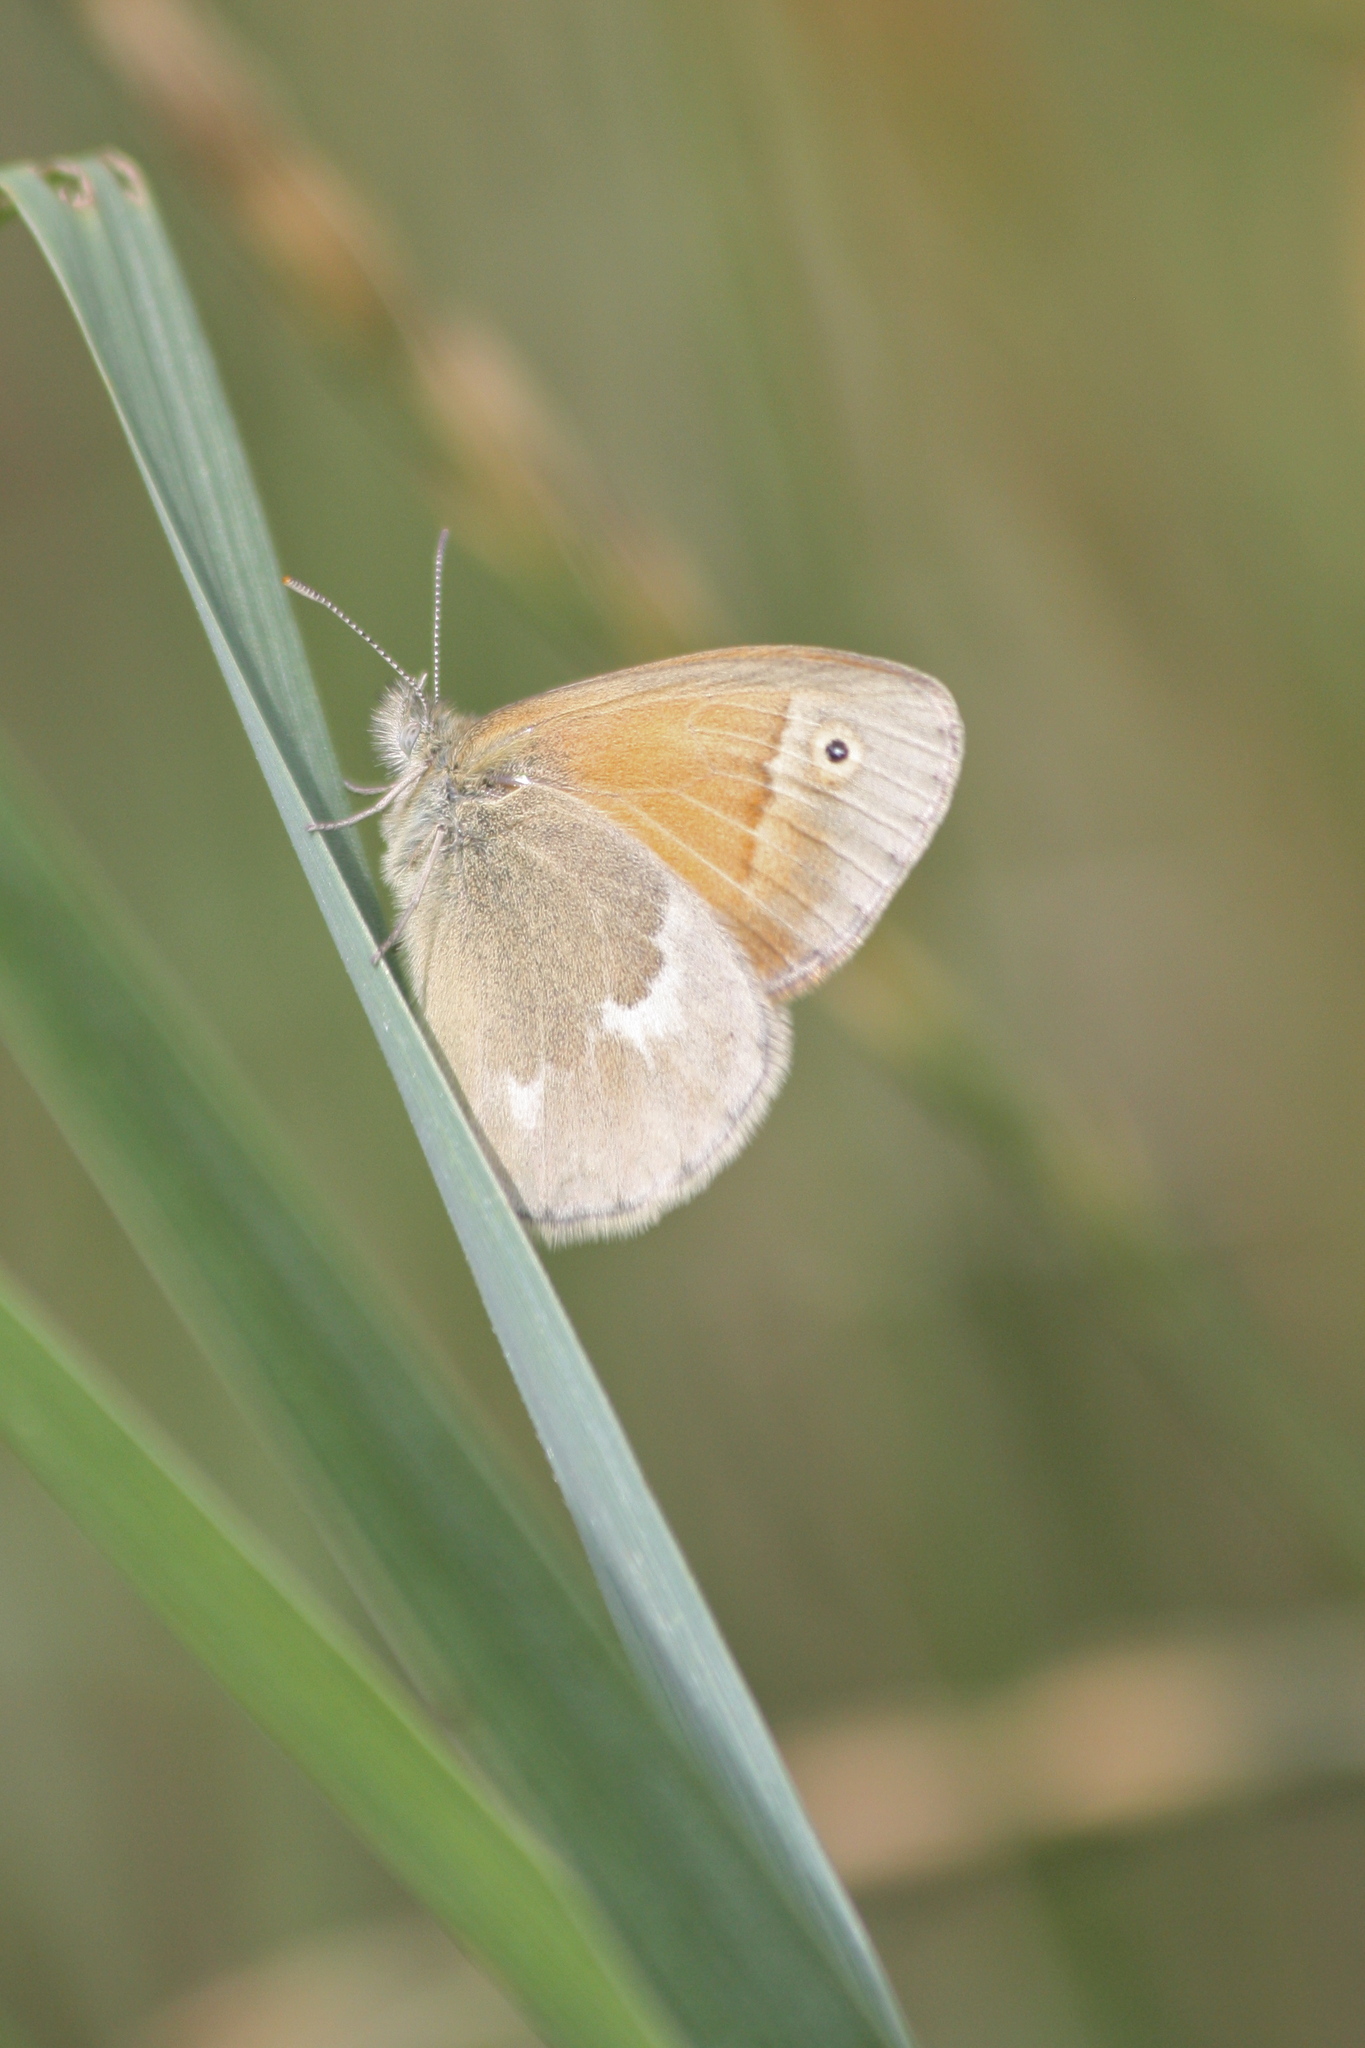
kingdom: Animalia
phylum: Arthropoda
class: Insecta
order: Lepidoptera
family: Nymphalidae
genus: Coenonympha
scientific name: Coenonympha california
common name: Common ringlet
